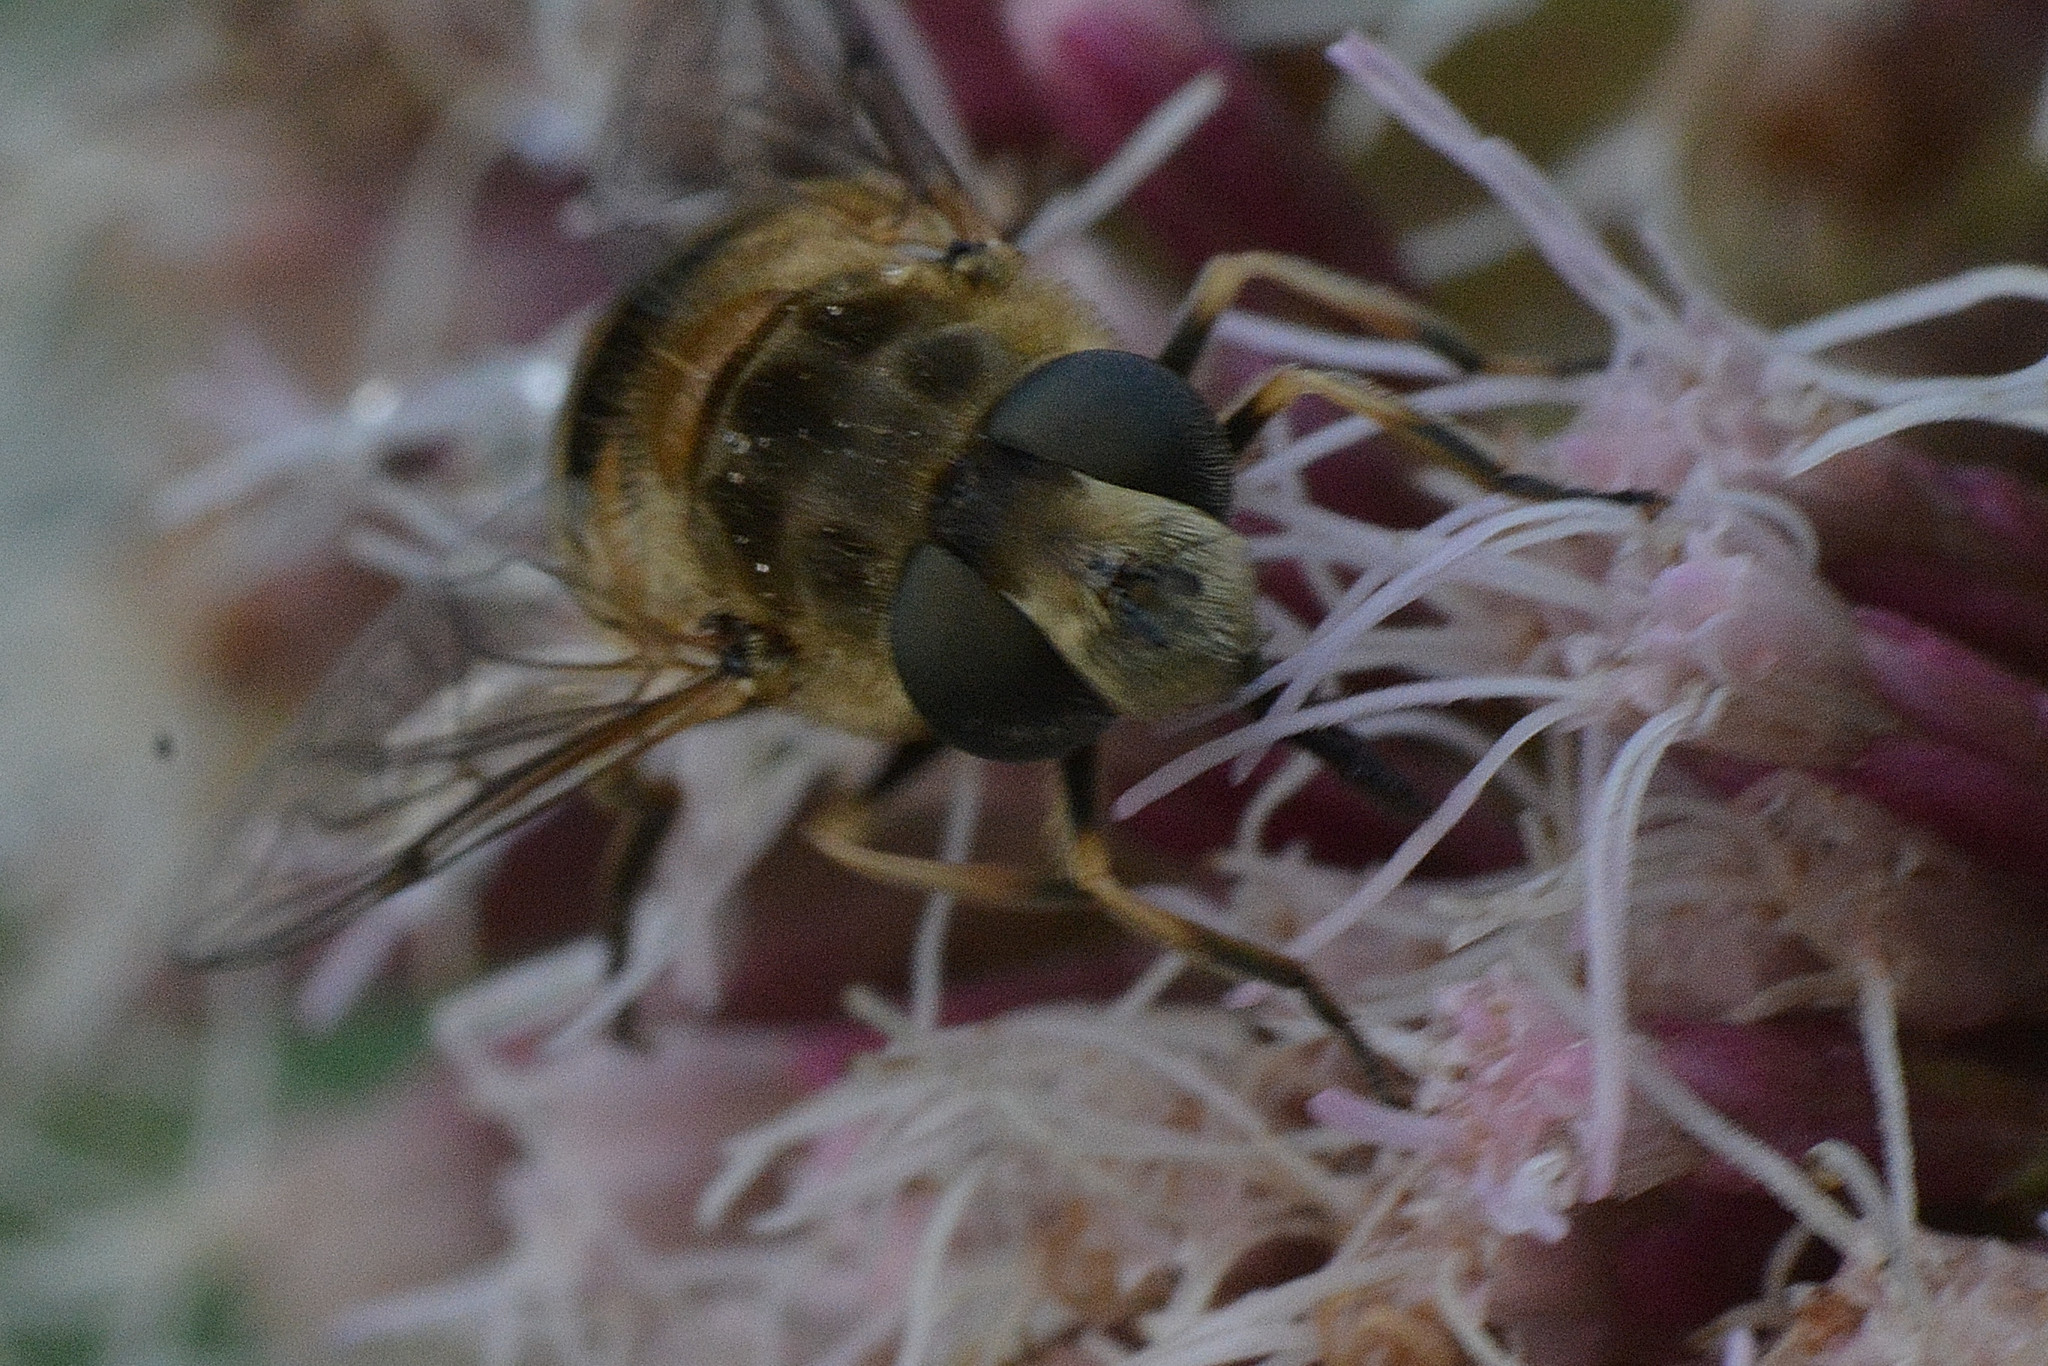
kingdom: Animalia
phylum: Arthropoda
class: Insecta
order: Diptera
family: Syrphidae
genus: Eristalis
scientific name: Eristalis arbustorum
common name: Hover fly
